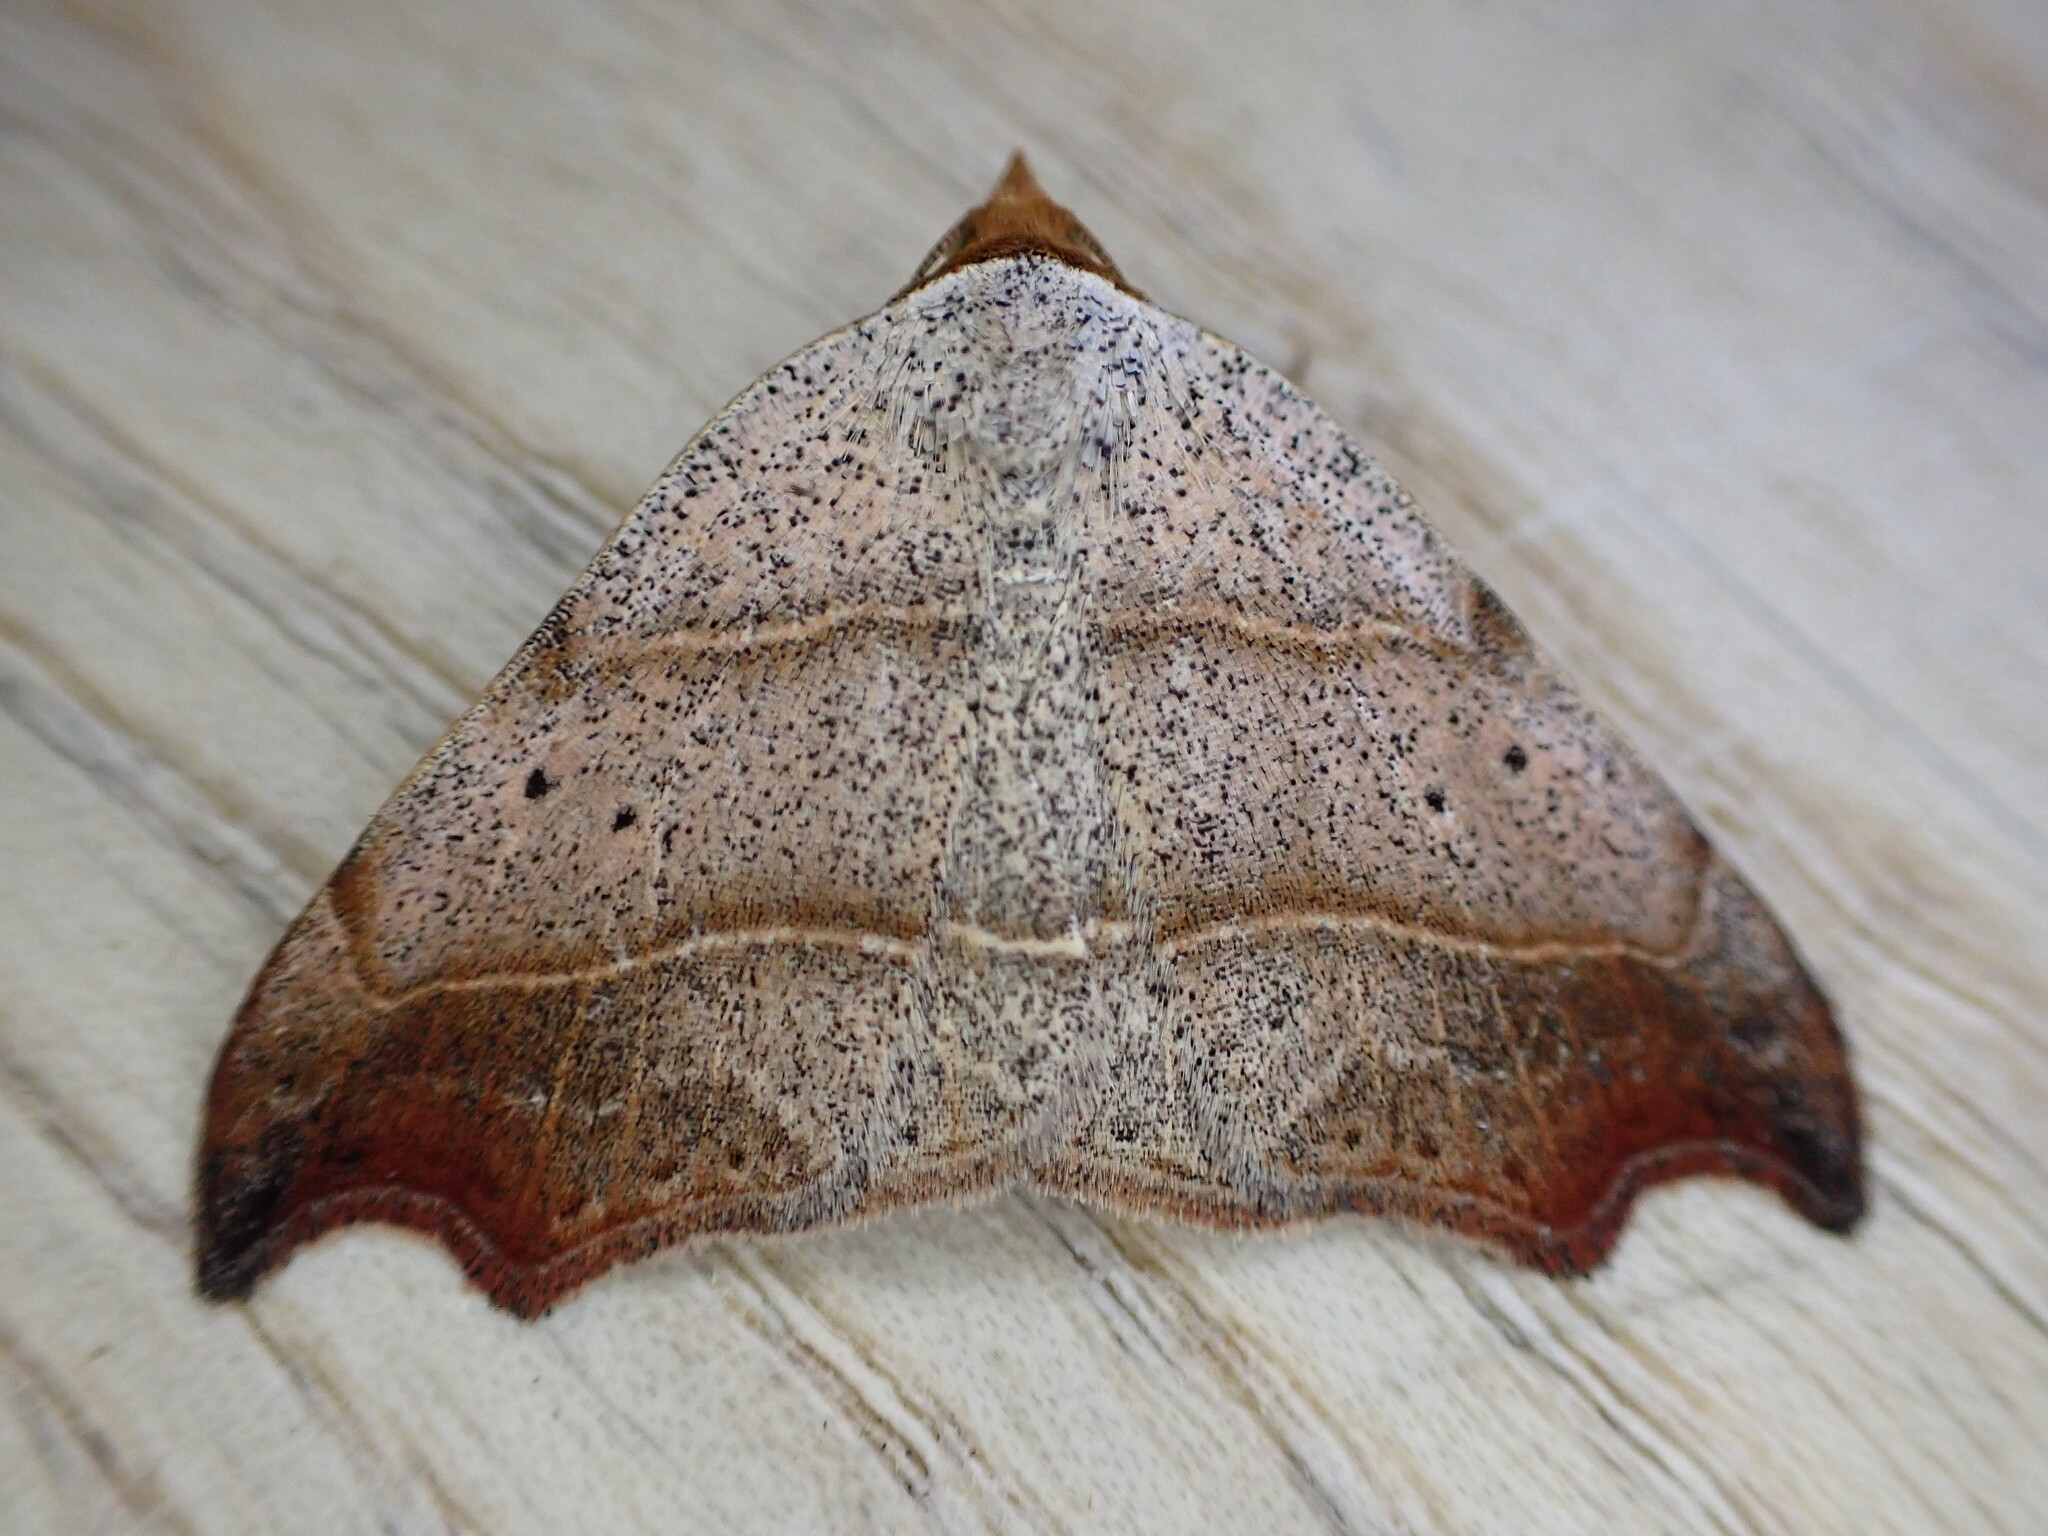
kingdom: Animalia
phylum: Arthropoda
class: Insecta
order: Lepidoptera
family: Erebidae
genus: Laspeyria
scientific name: Laspeyria flexula
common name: Beautiful hook-tip
